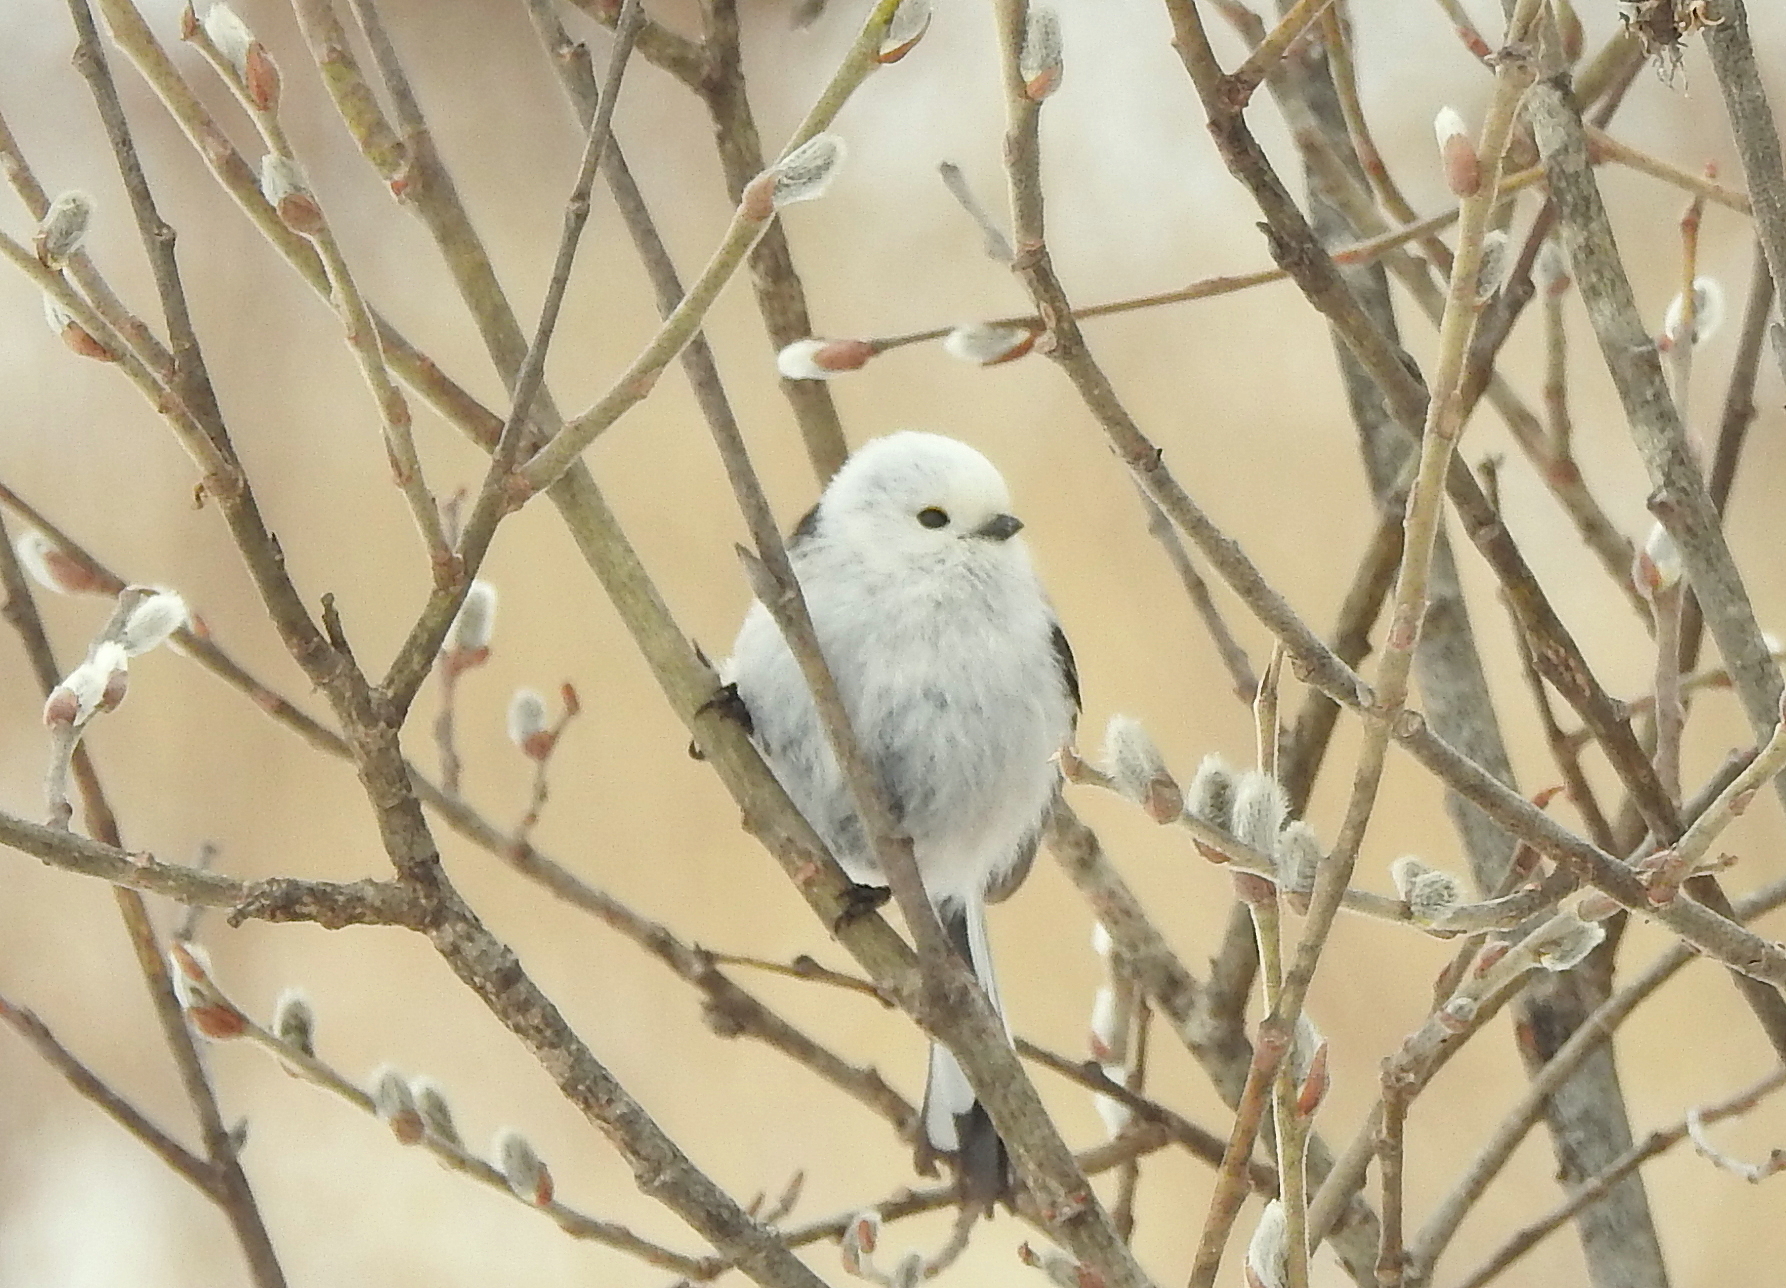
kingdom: Animalia
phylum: Chordata
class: Aves
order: Passeriformes
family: Aegithalidae
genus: Aegithalos
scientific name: Aegithalos caudatus
